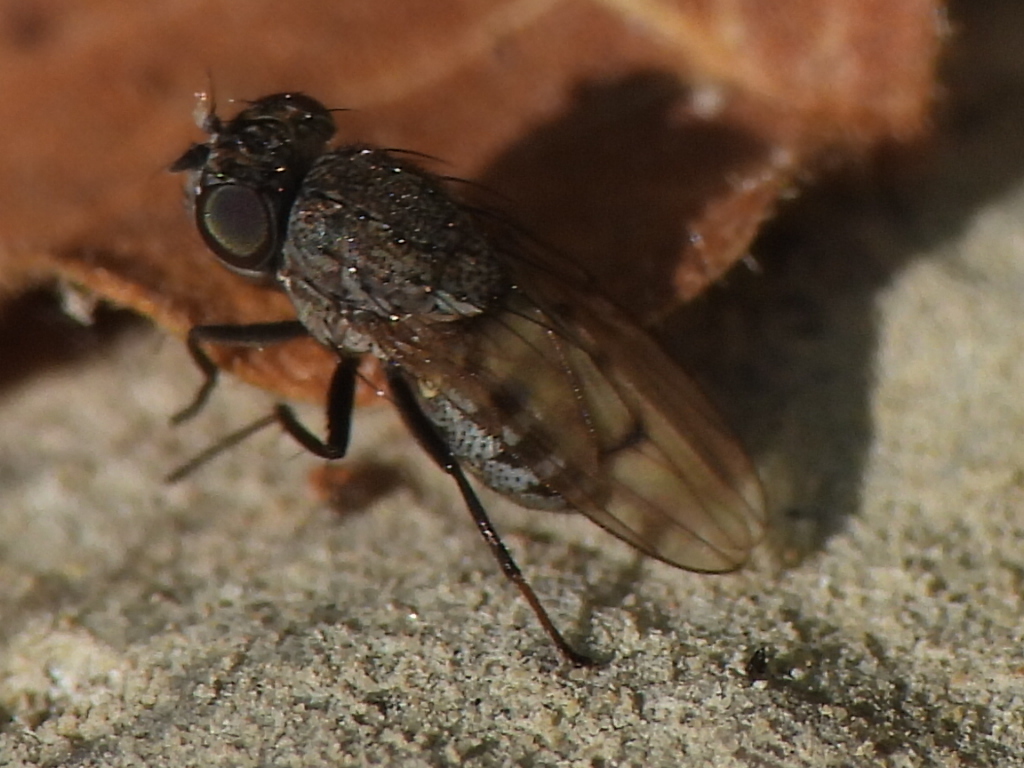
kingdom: Animalia
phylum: Arthropoda
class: Insecta
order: Diptera
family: Ephydridae
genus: Paralimna
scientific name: Paralimna punctipennis
